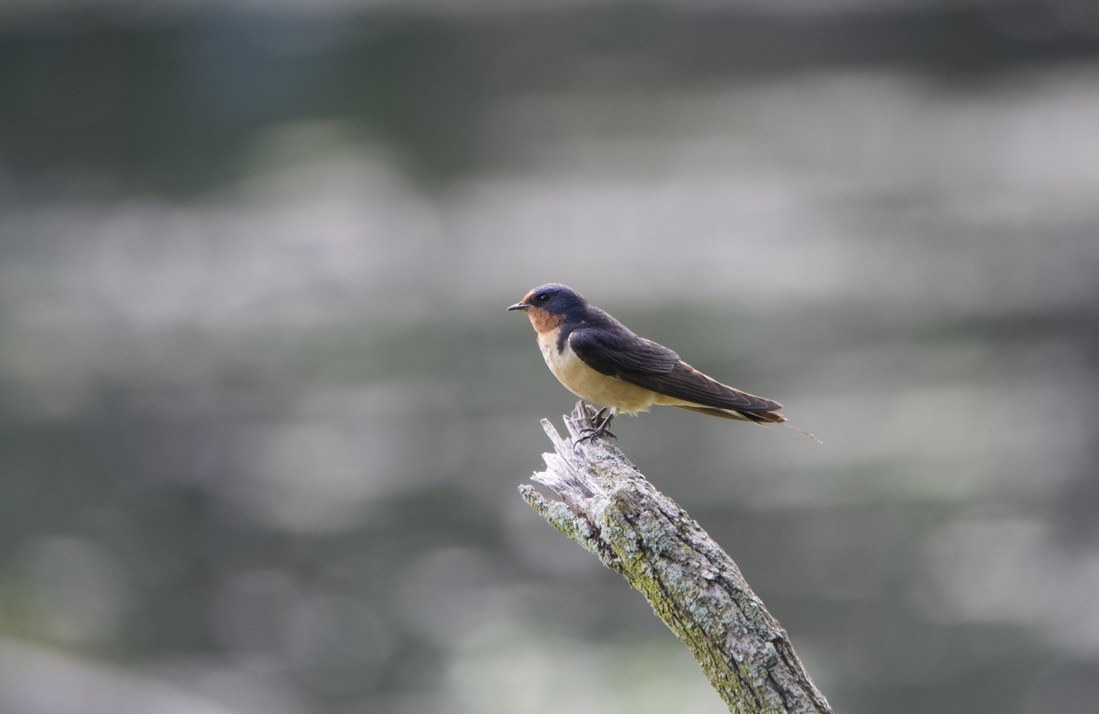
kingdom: Animalia
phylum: Chordata
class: Aves
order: Passeriformes
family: Hirundinidae
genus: Hirundo
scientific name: Hirundo rustica
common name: Barn swallow
